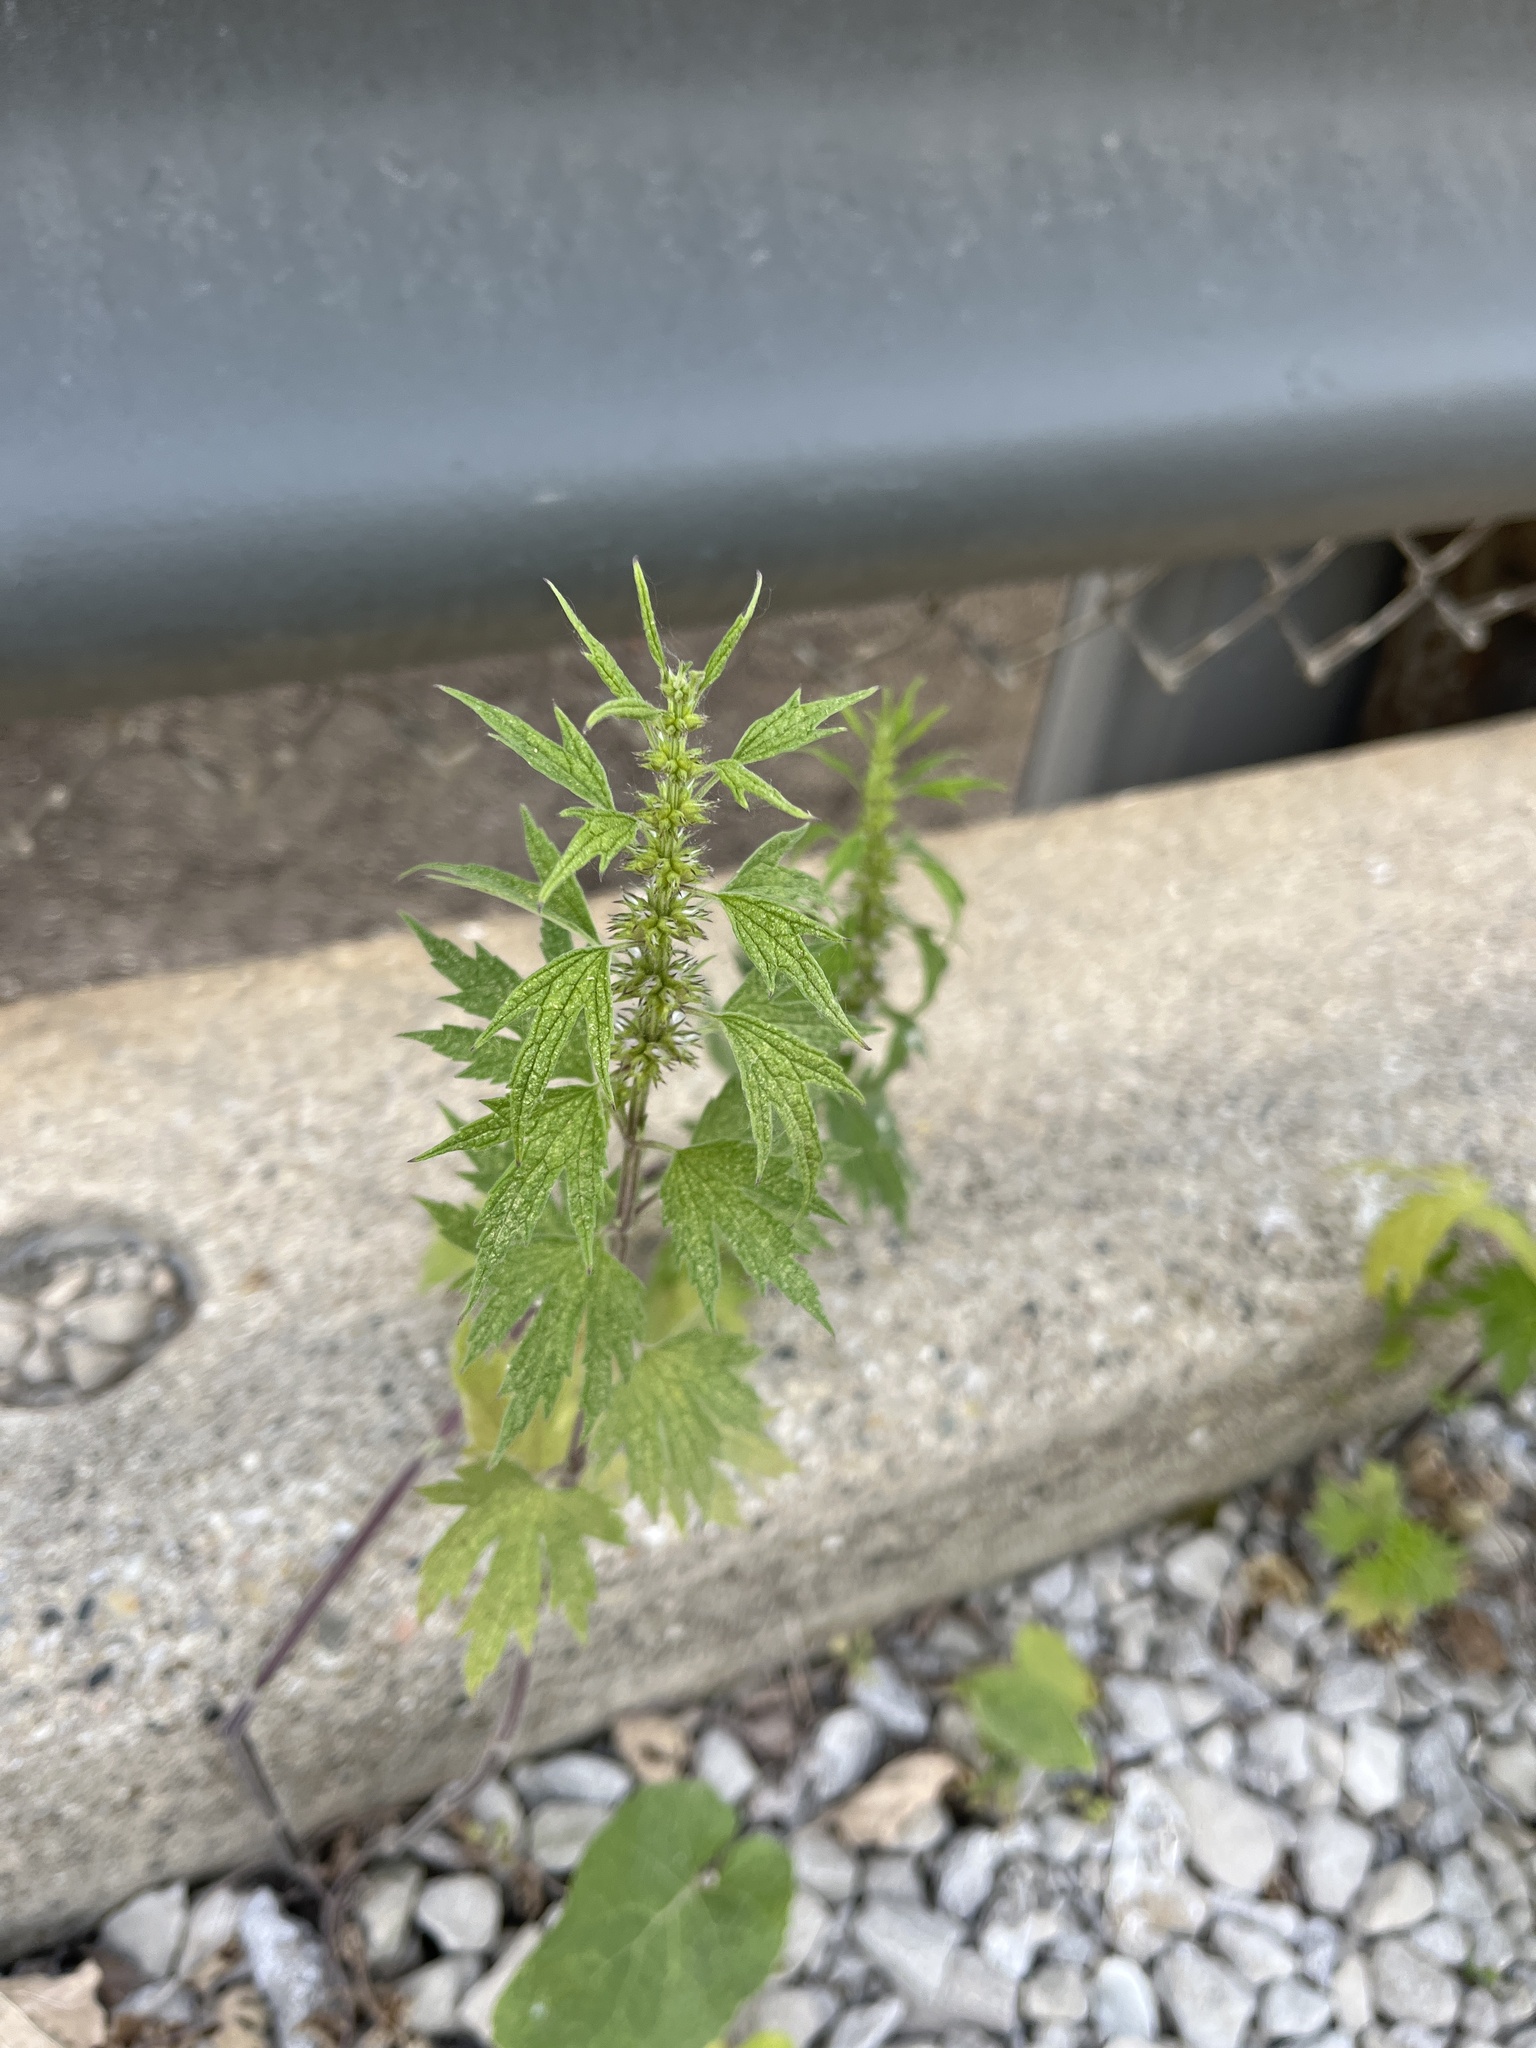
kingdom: Plantae
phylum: Tracheophyta
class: Magnoliopsida
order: Lamiales
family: Lamiaceae
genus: Leonurus
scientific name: Leonurus cardiaca
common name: Motherwort
